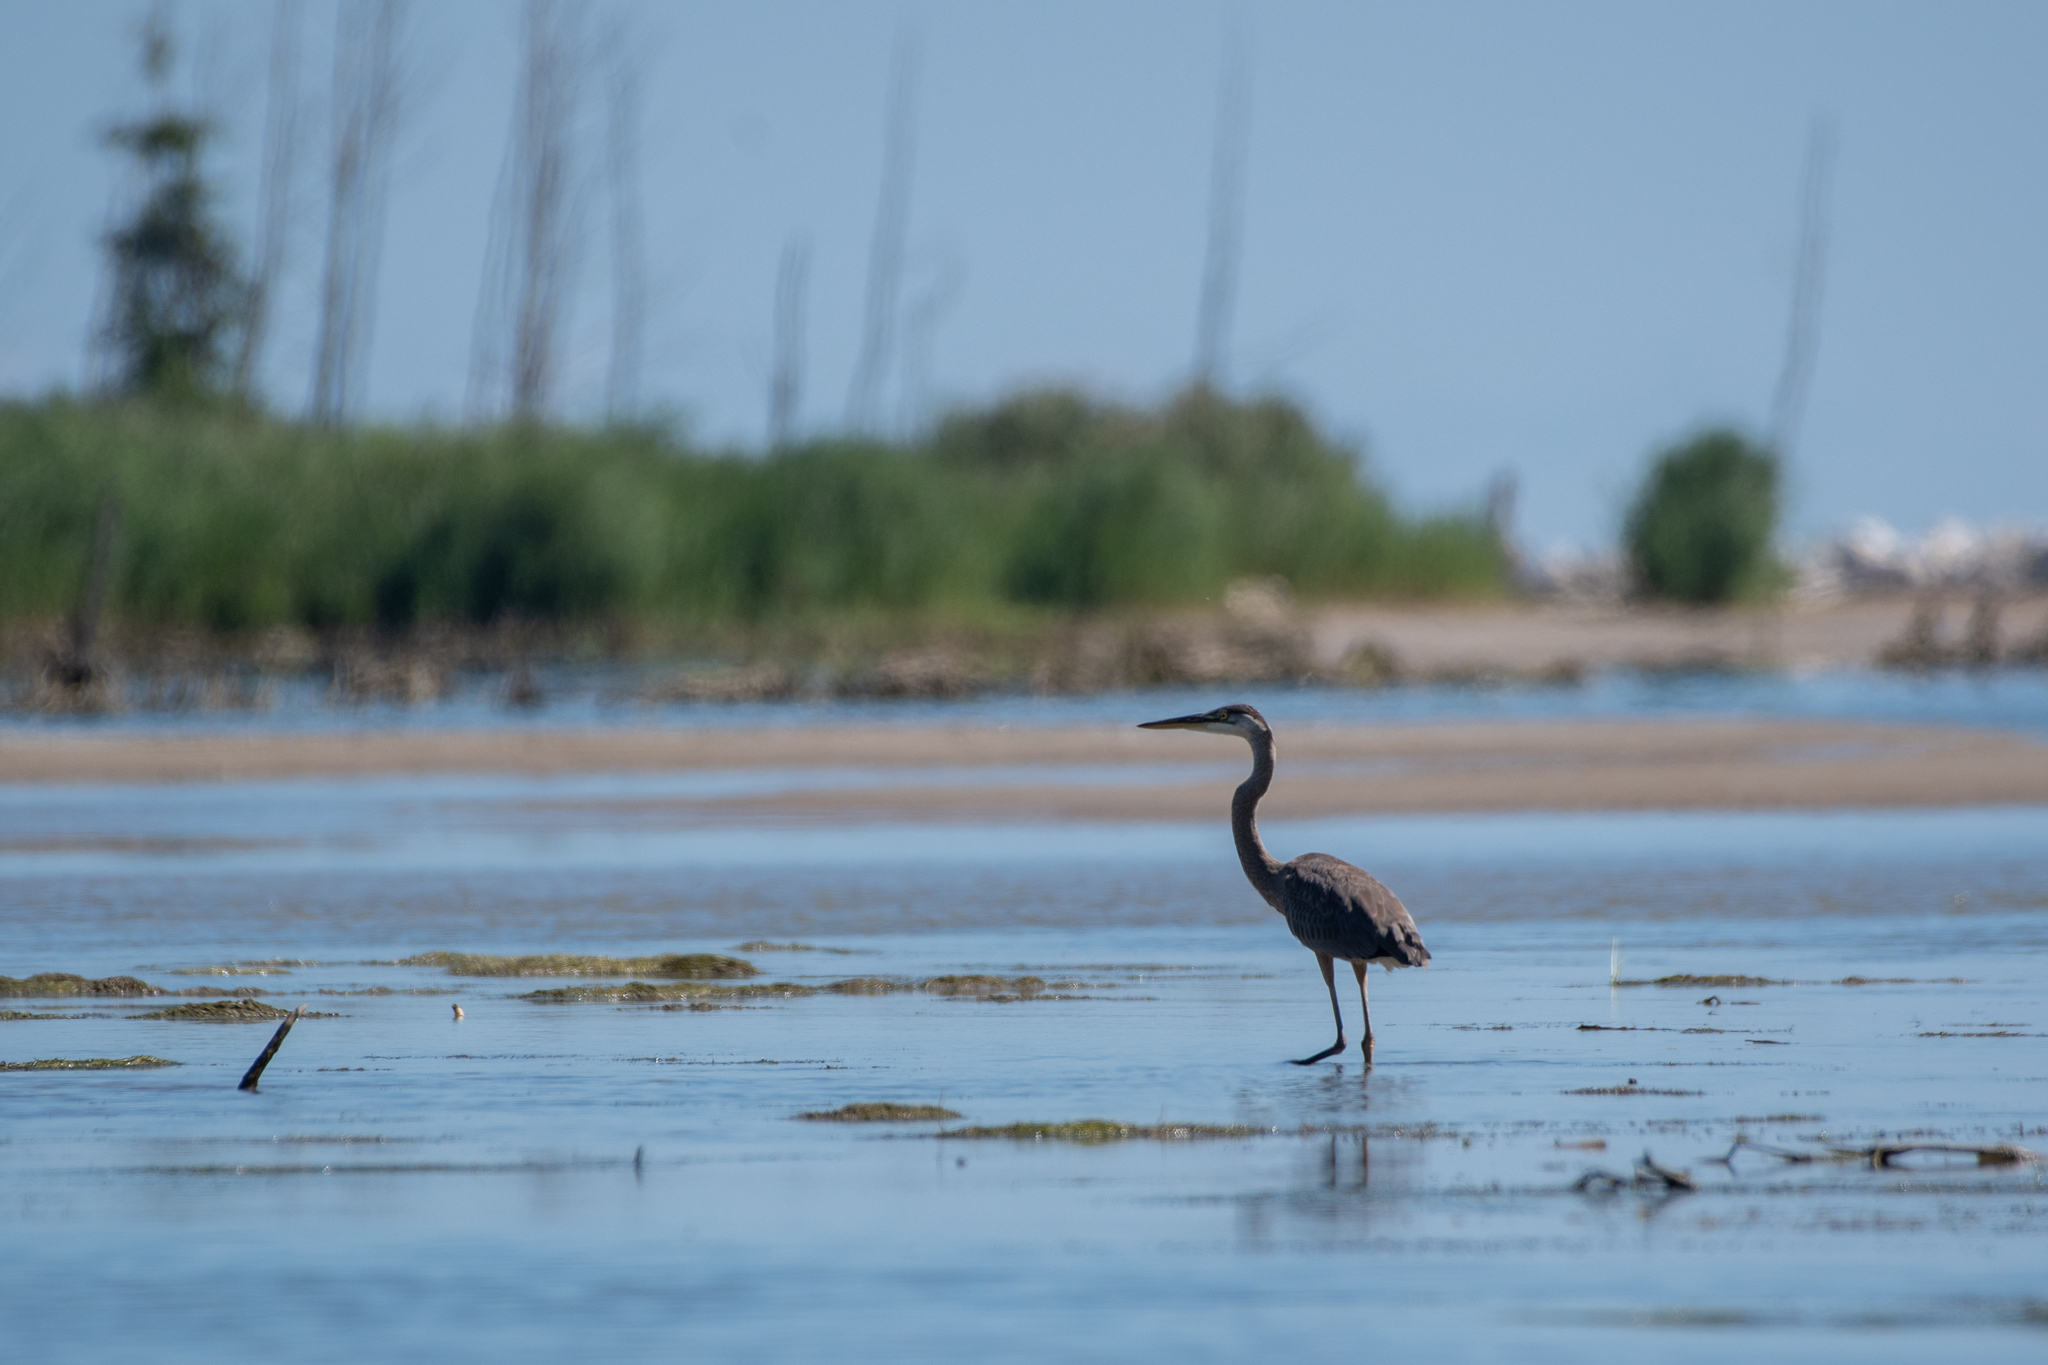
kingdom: Animalia
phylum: Chordata
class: Aves
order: Pelecaniformes
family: Ardeidae
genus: Ardea
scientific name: Ardea herodias
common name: Great blue heron
